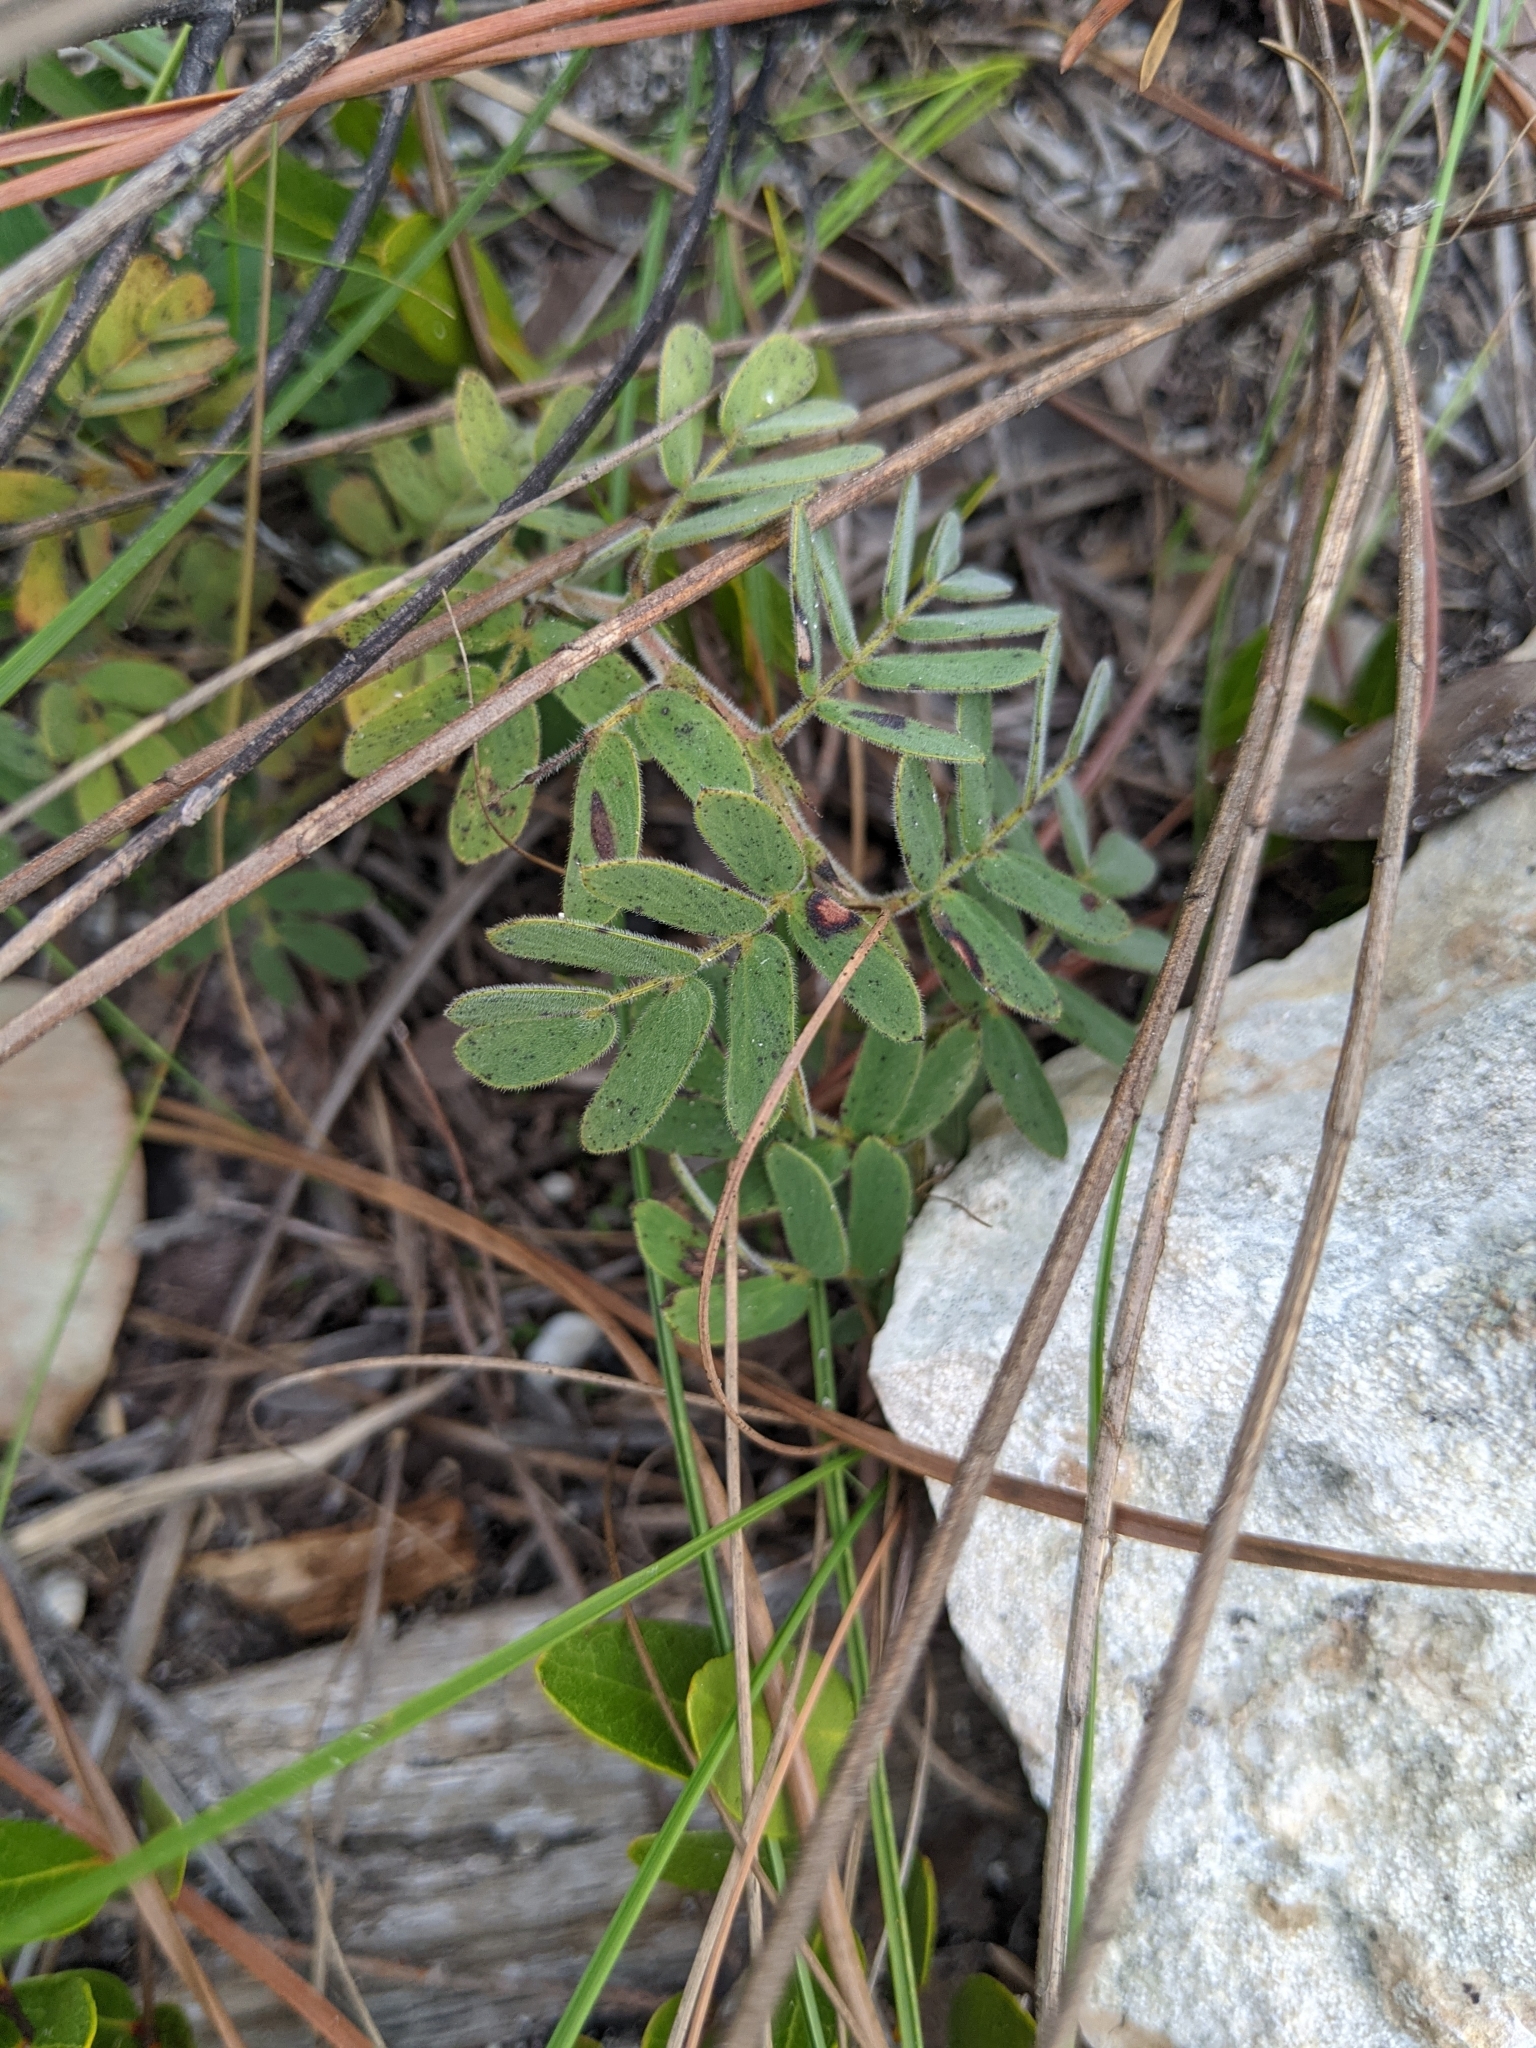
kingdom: Plantae
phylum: Tracheophyta
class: Magnoliopsida
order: Fabales
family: Fabaceae
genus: Chamaecrista
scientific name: Chamaecrista lineata
